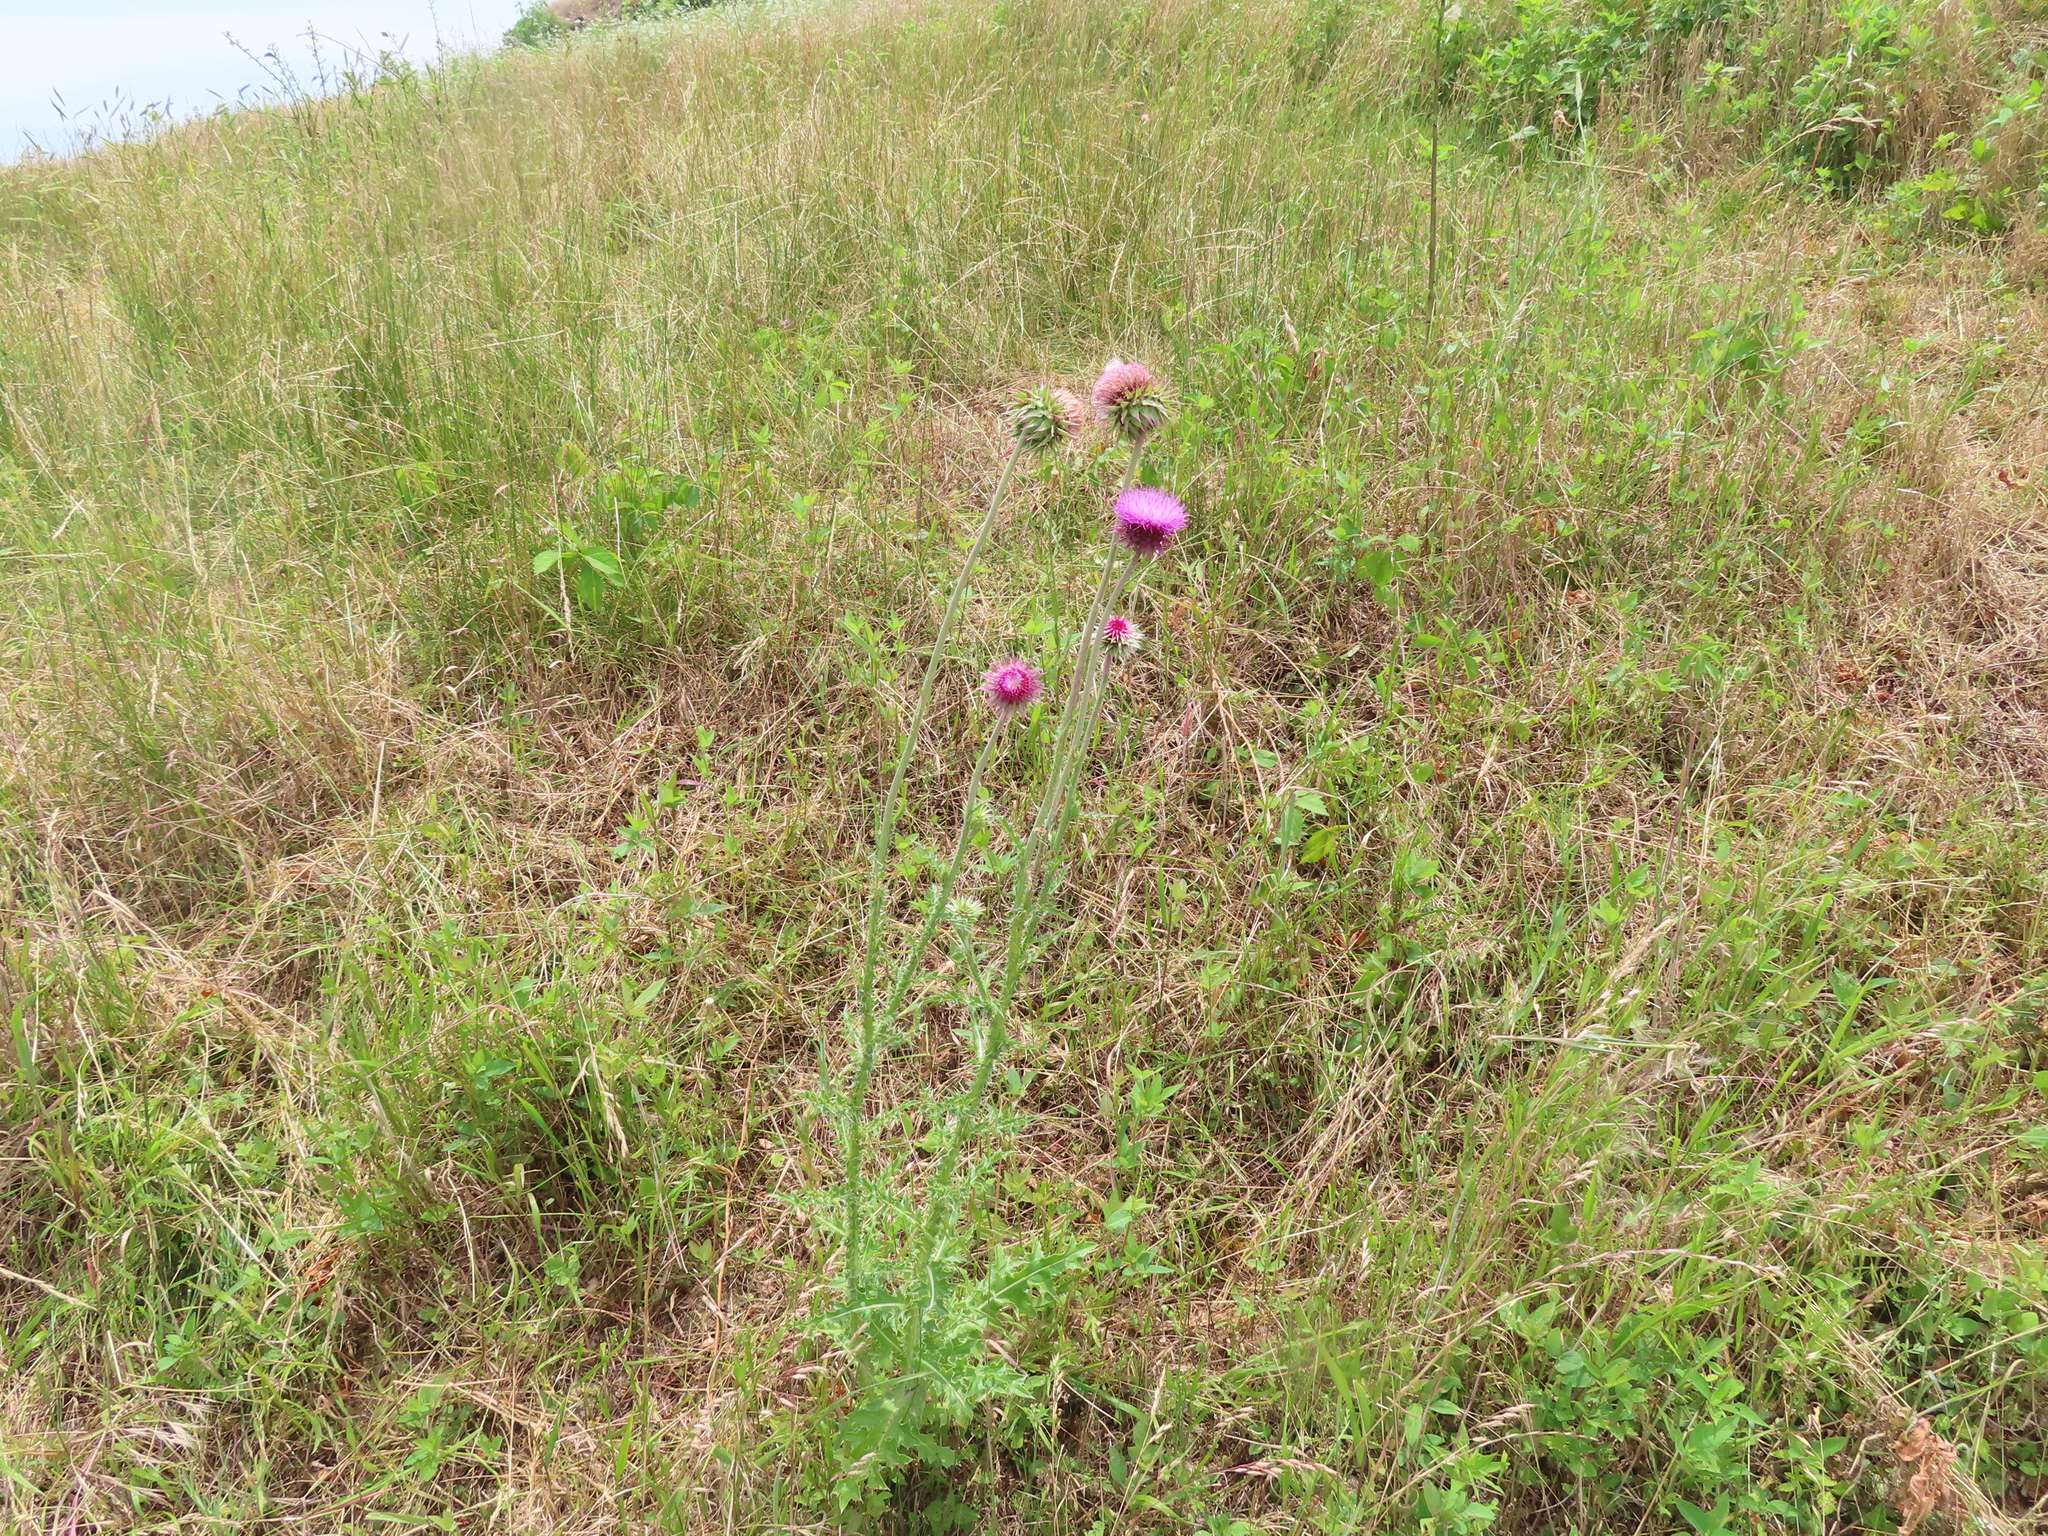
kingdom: Plantae
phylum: Tracheophyta
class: Magnoliopsida
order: Asterales
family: Asteraceae
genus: Carduus
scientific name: Carduus nutans
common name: Musk thistle
